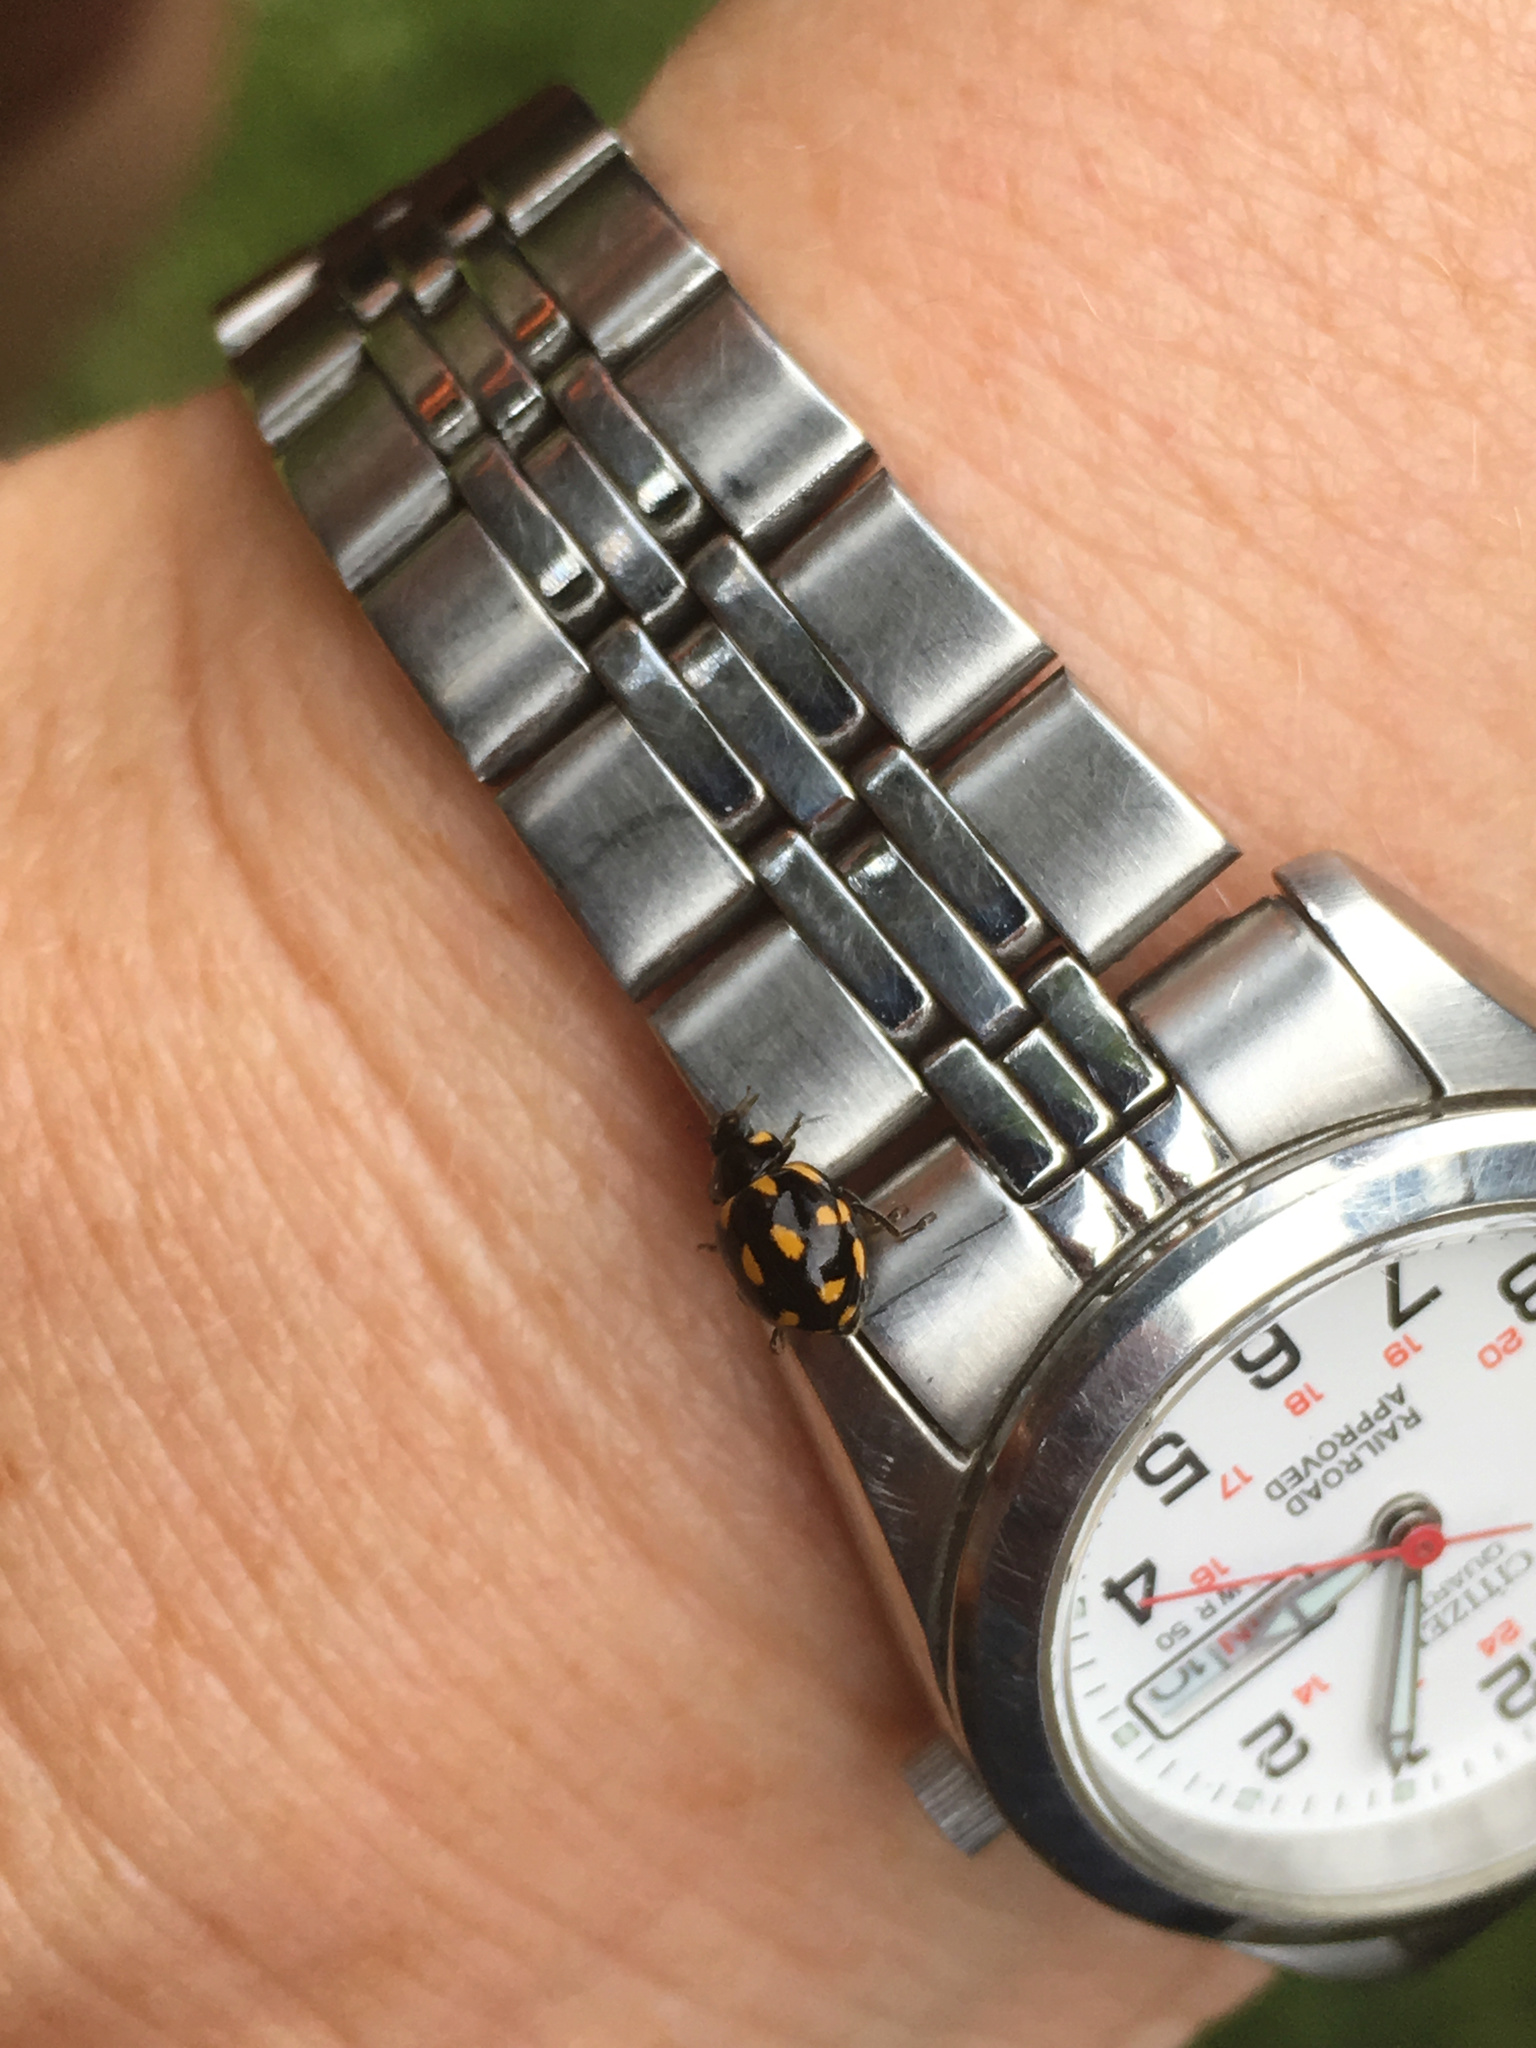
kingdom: Animalia
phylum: Arthropoda
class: Insecta
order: Coleoptera
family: Coccinellidae
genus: Coccinella
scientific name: Coccinella leonina
